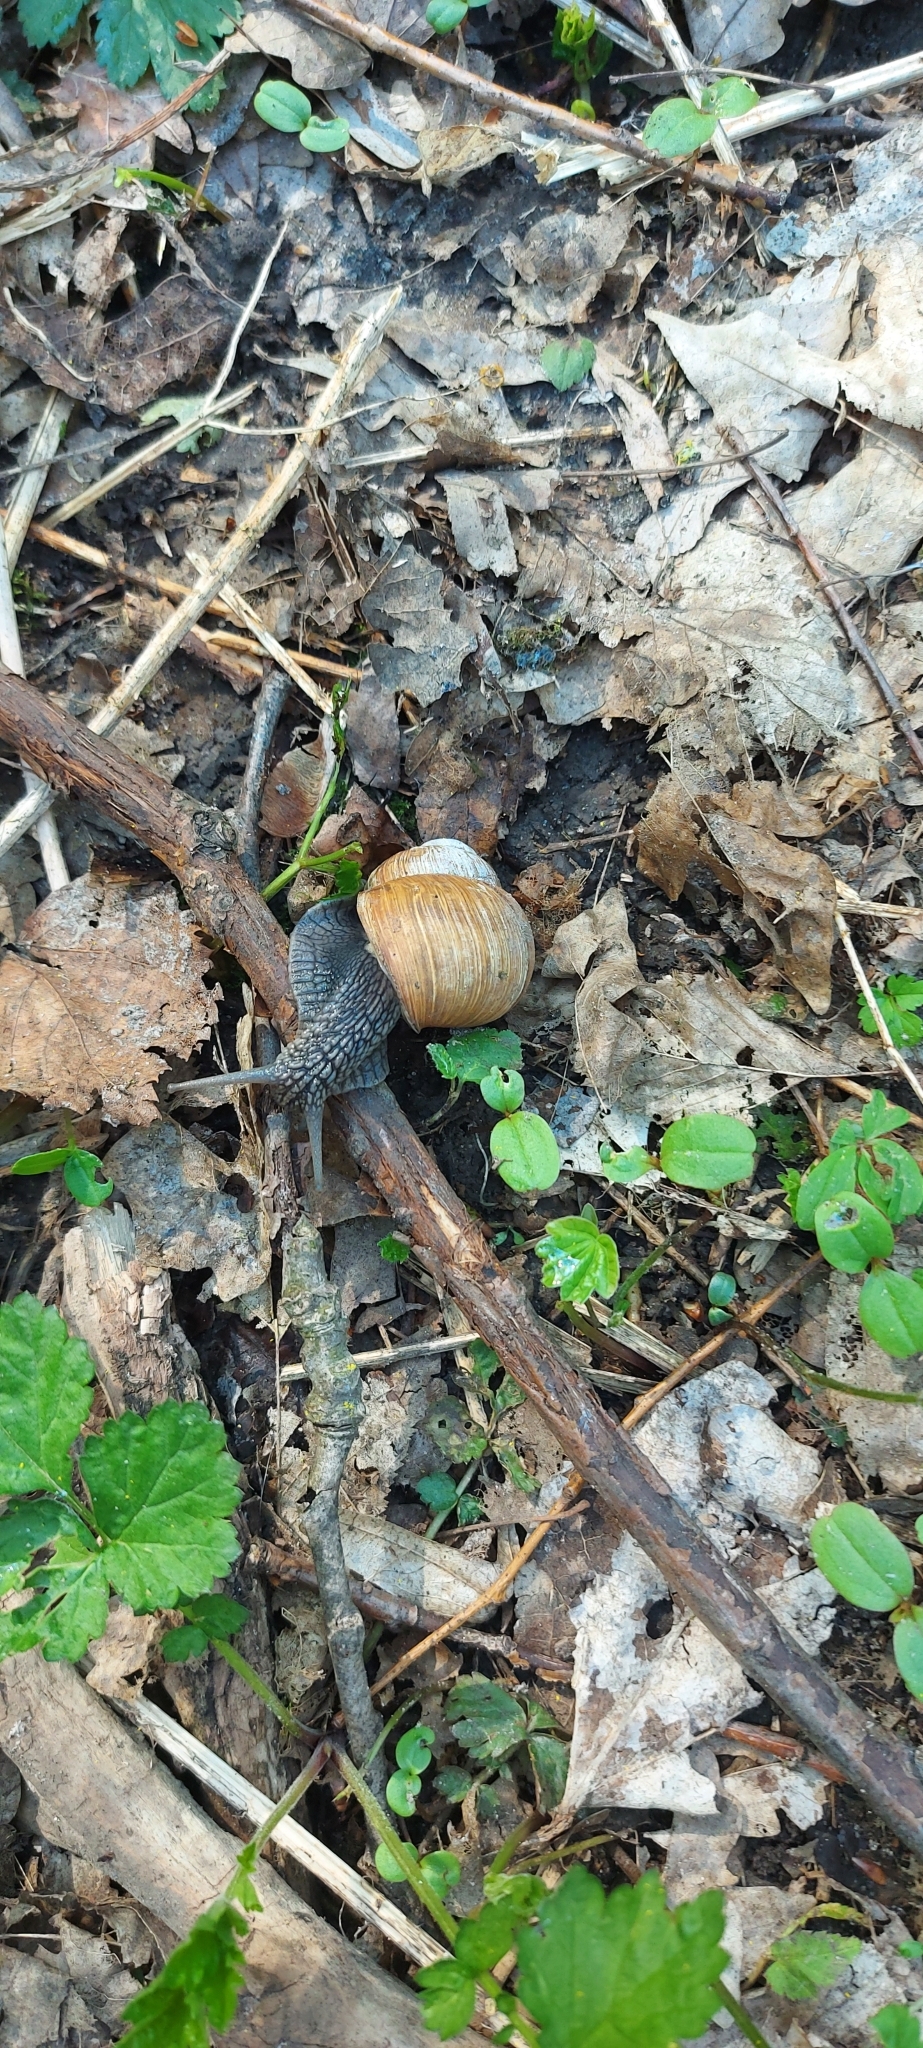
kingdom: Animalia
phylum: Mollusca
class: Gastropoda
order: Stylommatophora
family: Helicidae
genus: Helix
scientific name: Helix pomatia
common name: Roman snail
